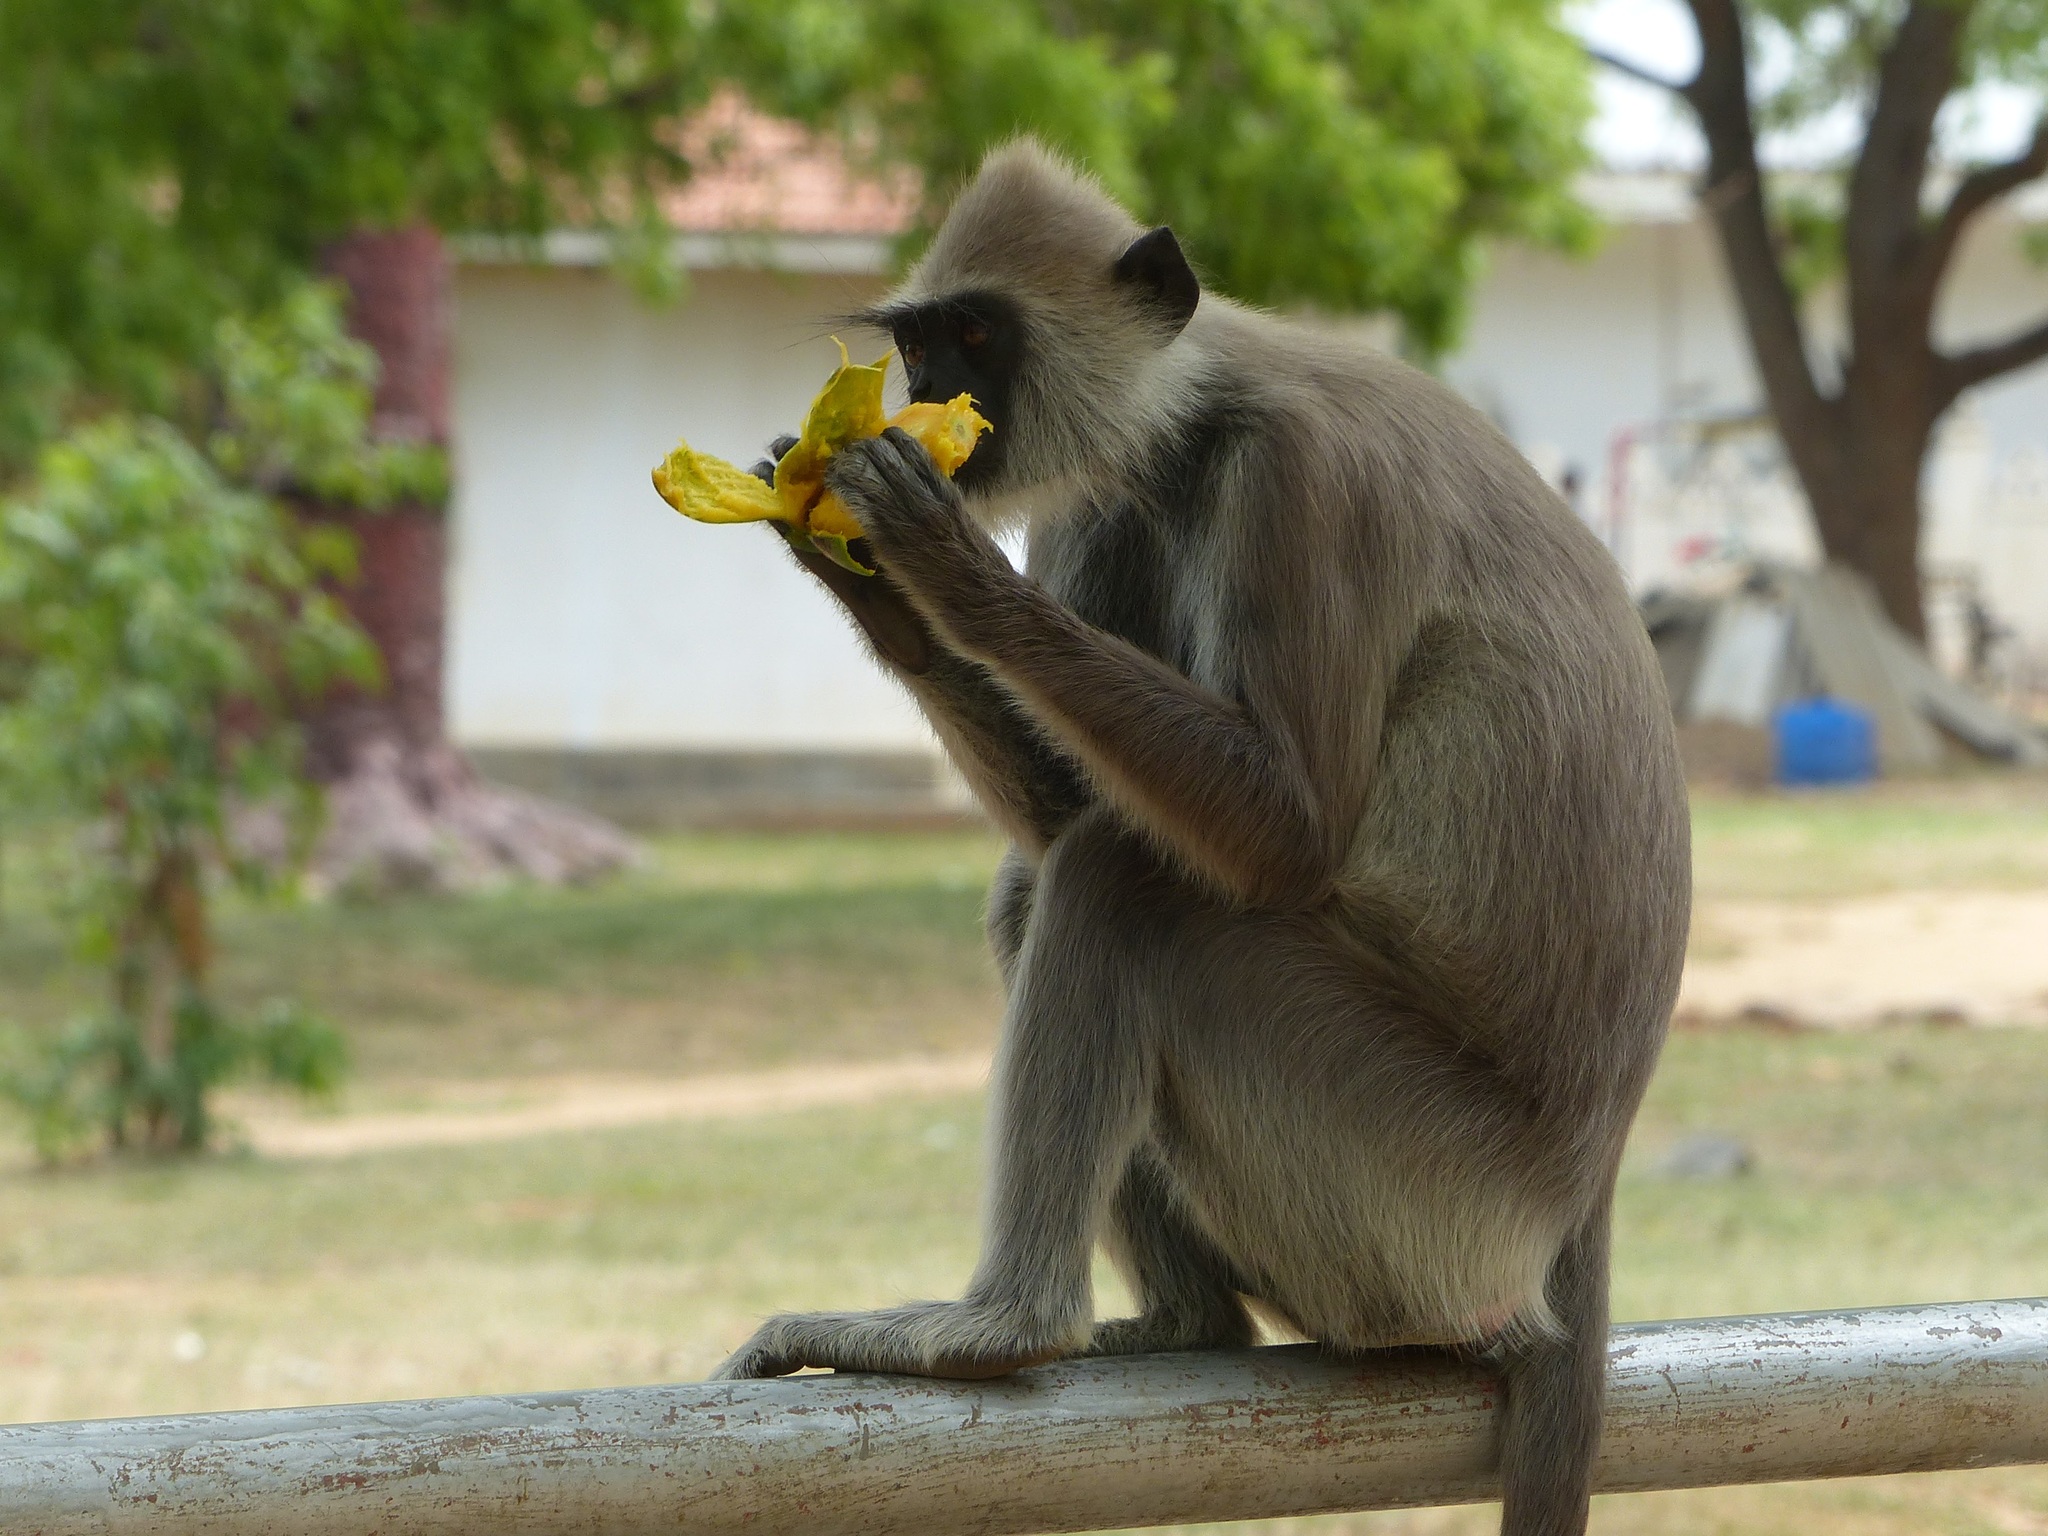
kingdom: Animalia
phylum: Chordata
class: Mammalia
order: Primates
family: Cercopithecidae
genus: Semnopithecus
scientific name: Semnopithecus priam
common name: Tufted gray langur
